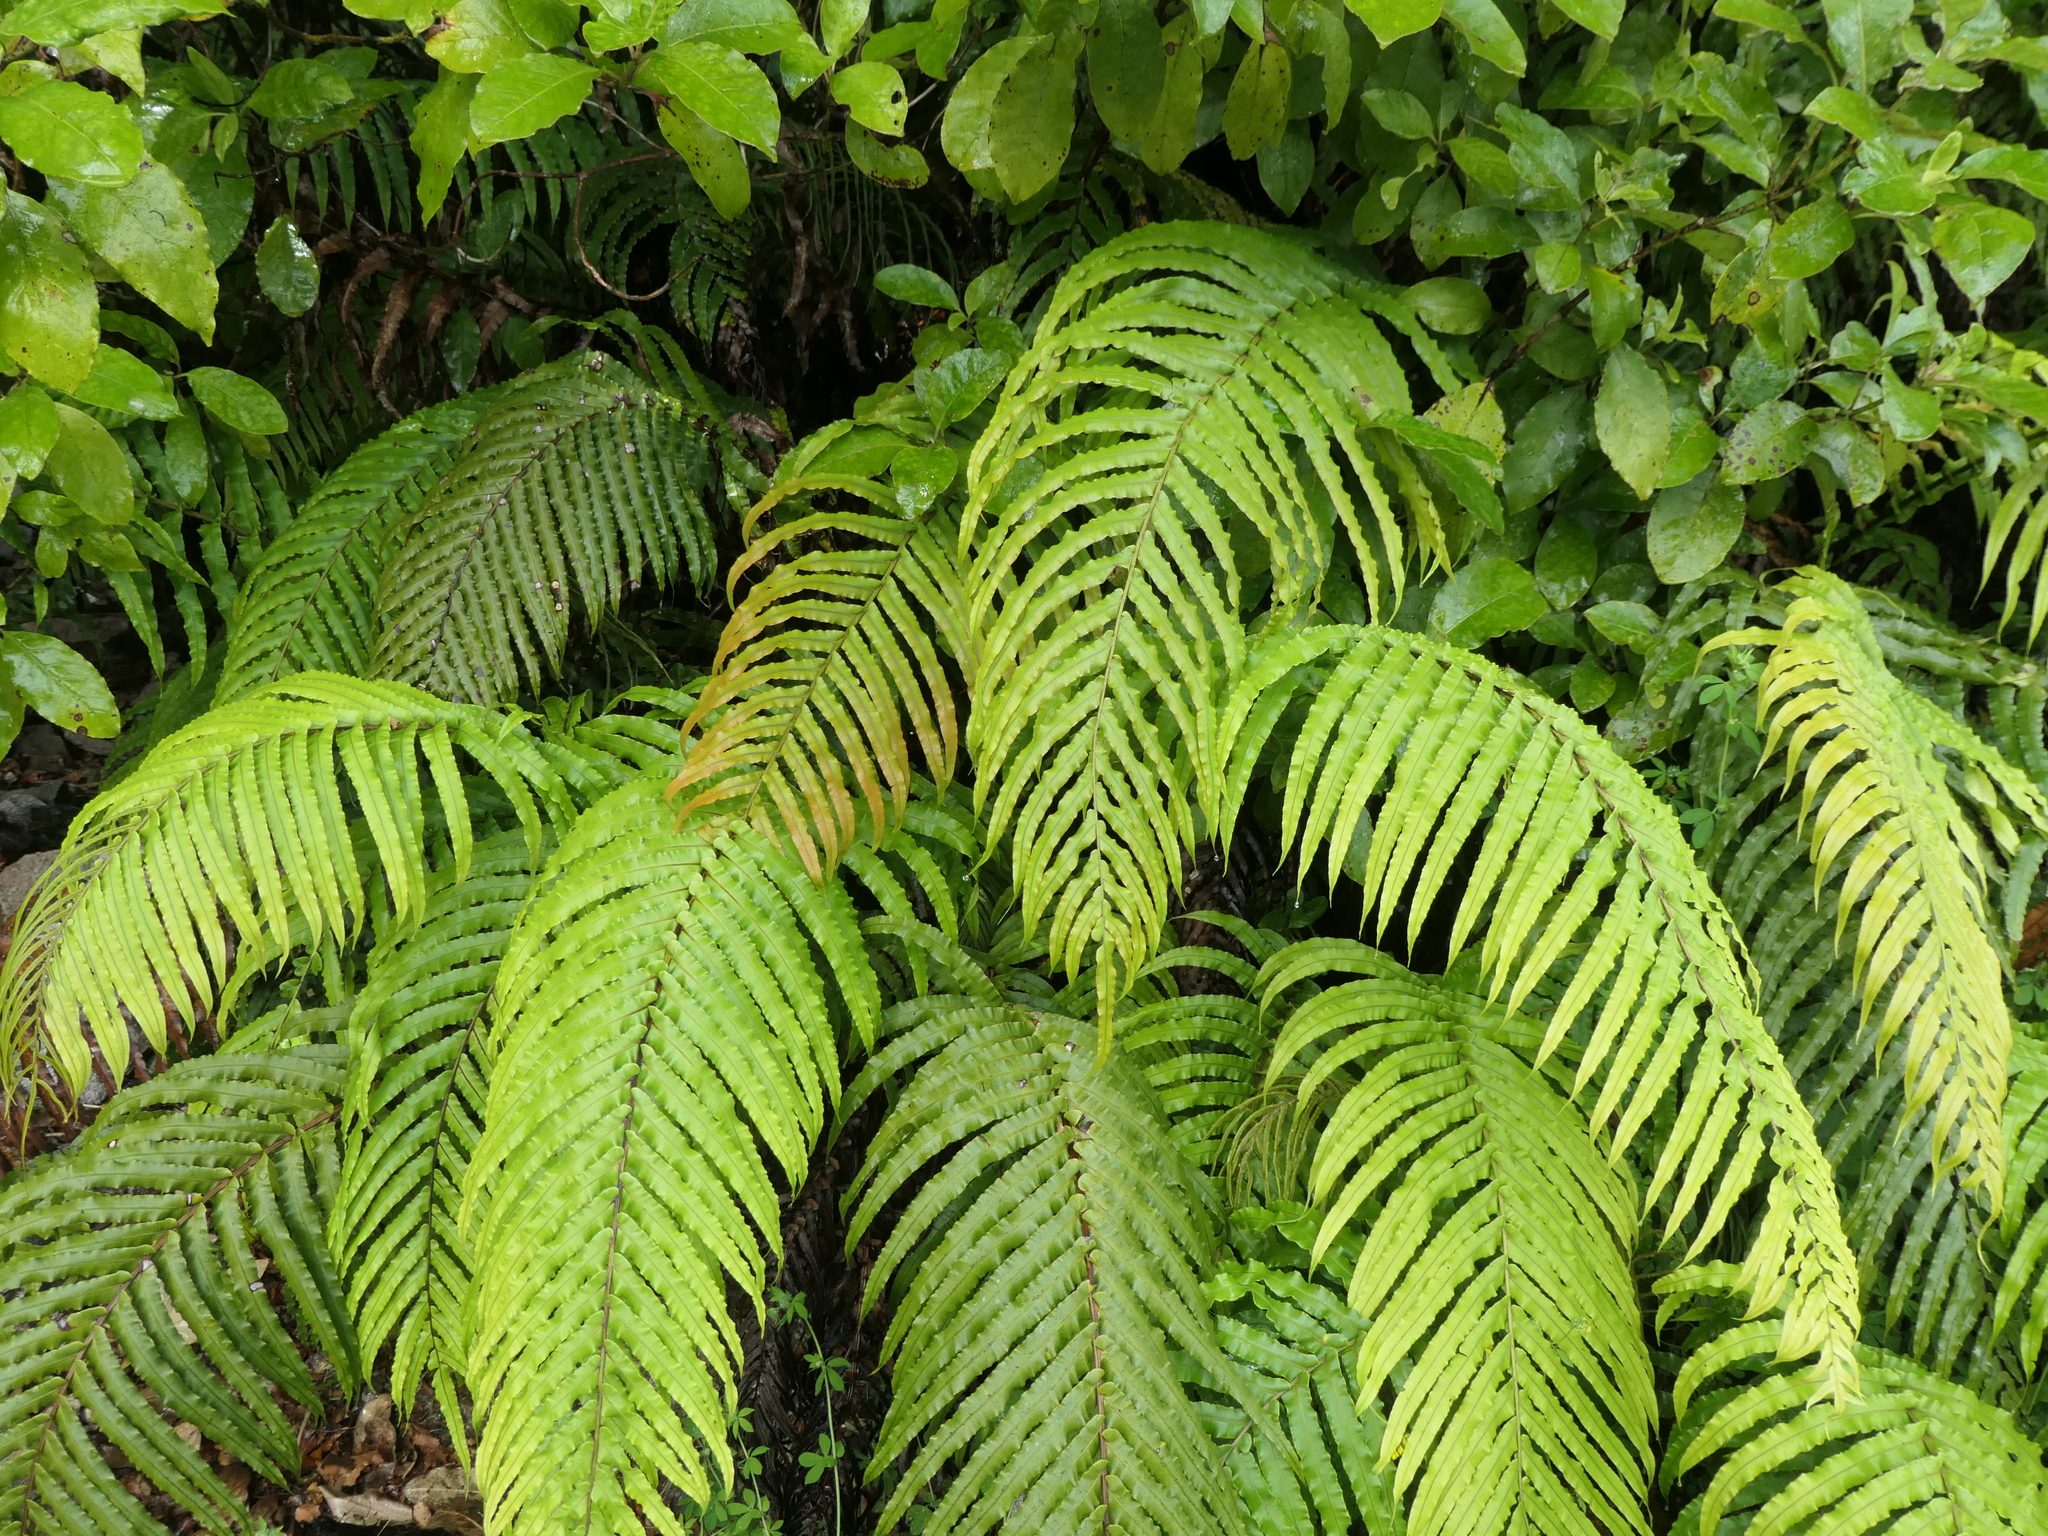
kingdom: Plantae
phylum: Tracheophyta
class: Polypodiopsida
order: Polypodiales
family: Blechnaceae
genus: Parablechnum
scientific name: Parablechnum novae-zelandiae
